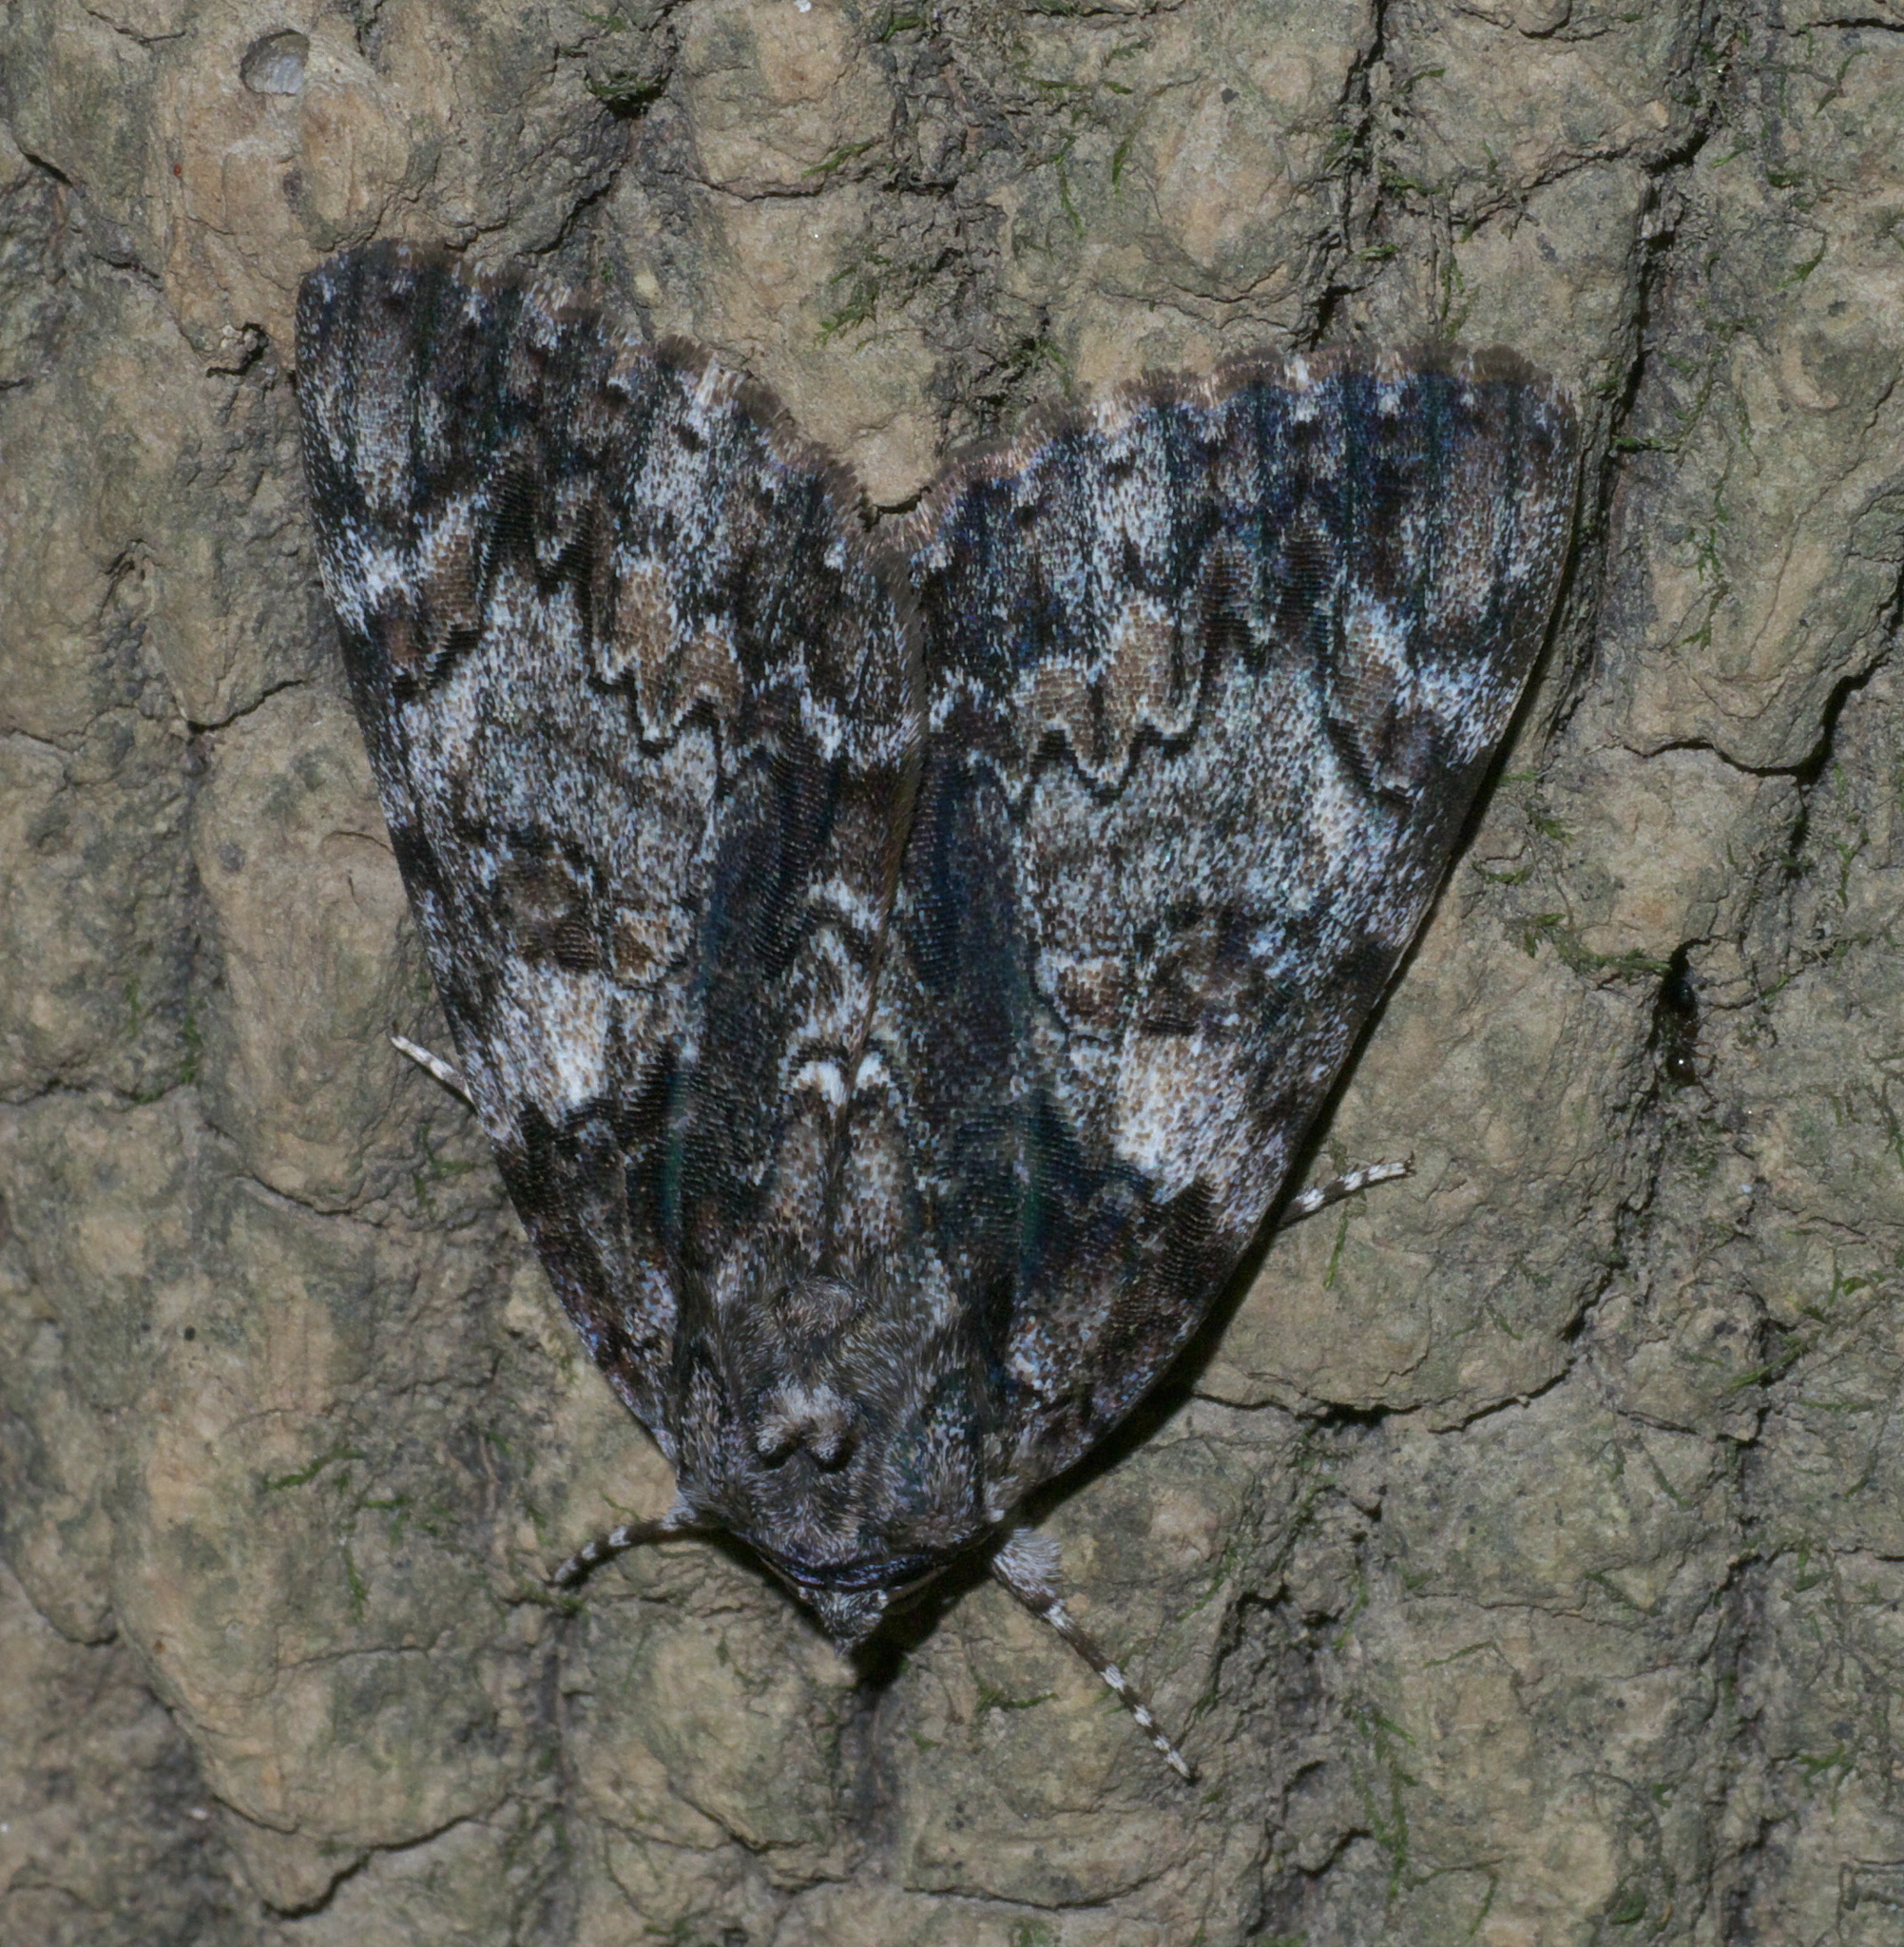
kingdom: Animalia
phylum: Arthropoda
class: Insecta
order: Lepidoptera
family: Erebidae
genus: Catocala
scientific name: Catocala lacrymosa
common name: Tearful underwing
